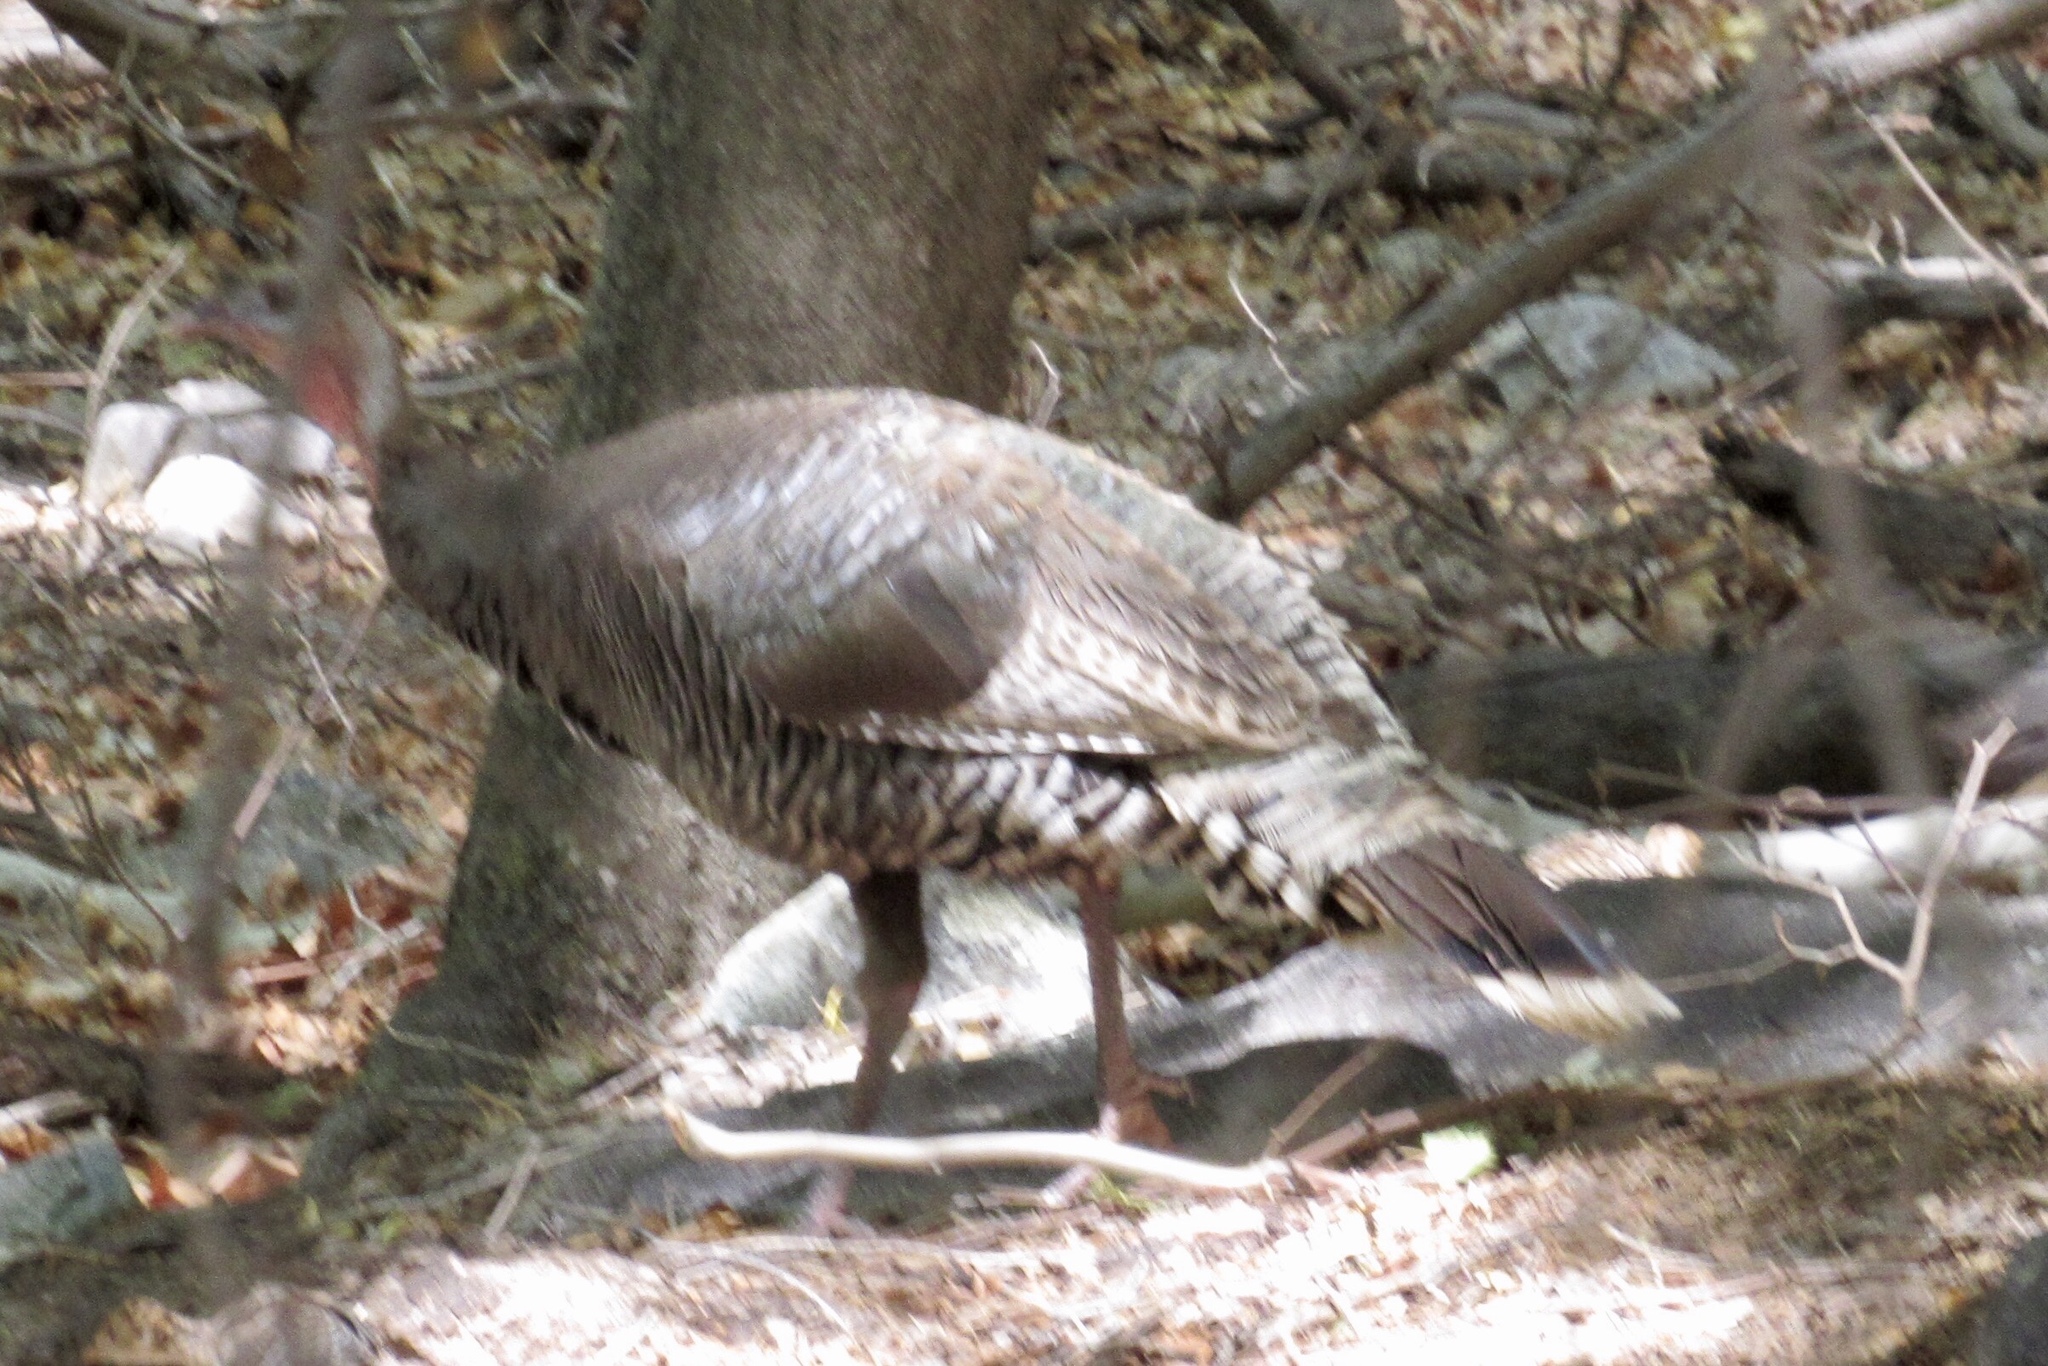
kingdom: Animalia
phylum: Chordata
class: Aves
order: Galliformes
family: Phasianidae
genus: Meleagris
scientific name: Meleagris gallopavo
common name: Wild turkey
